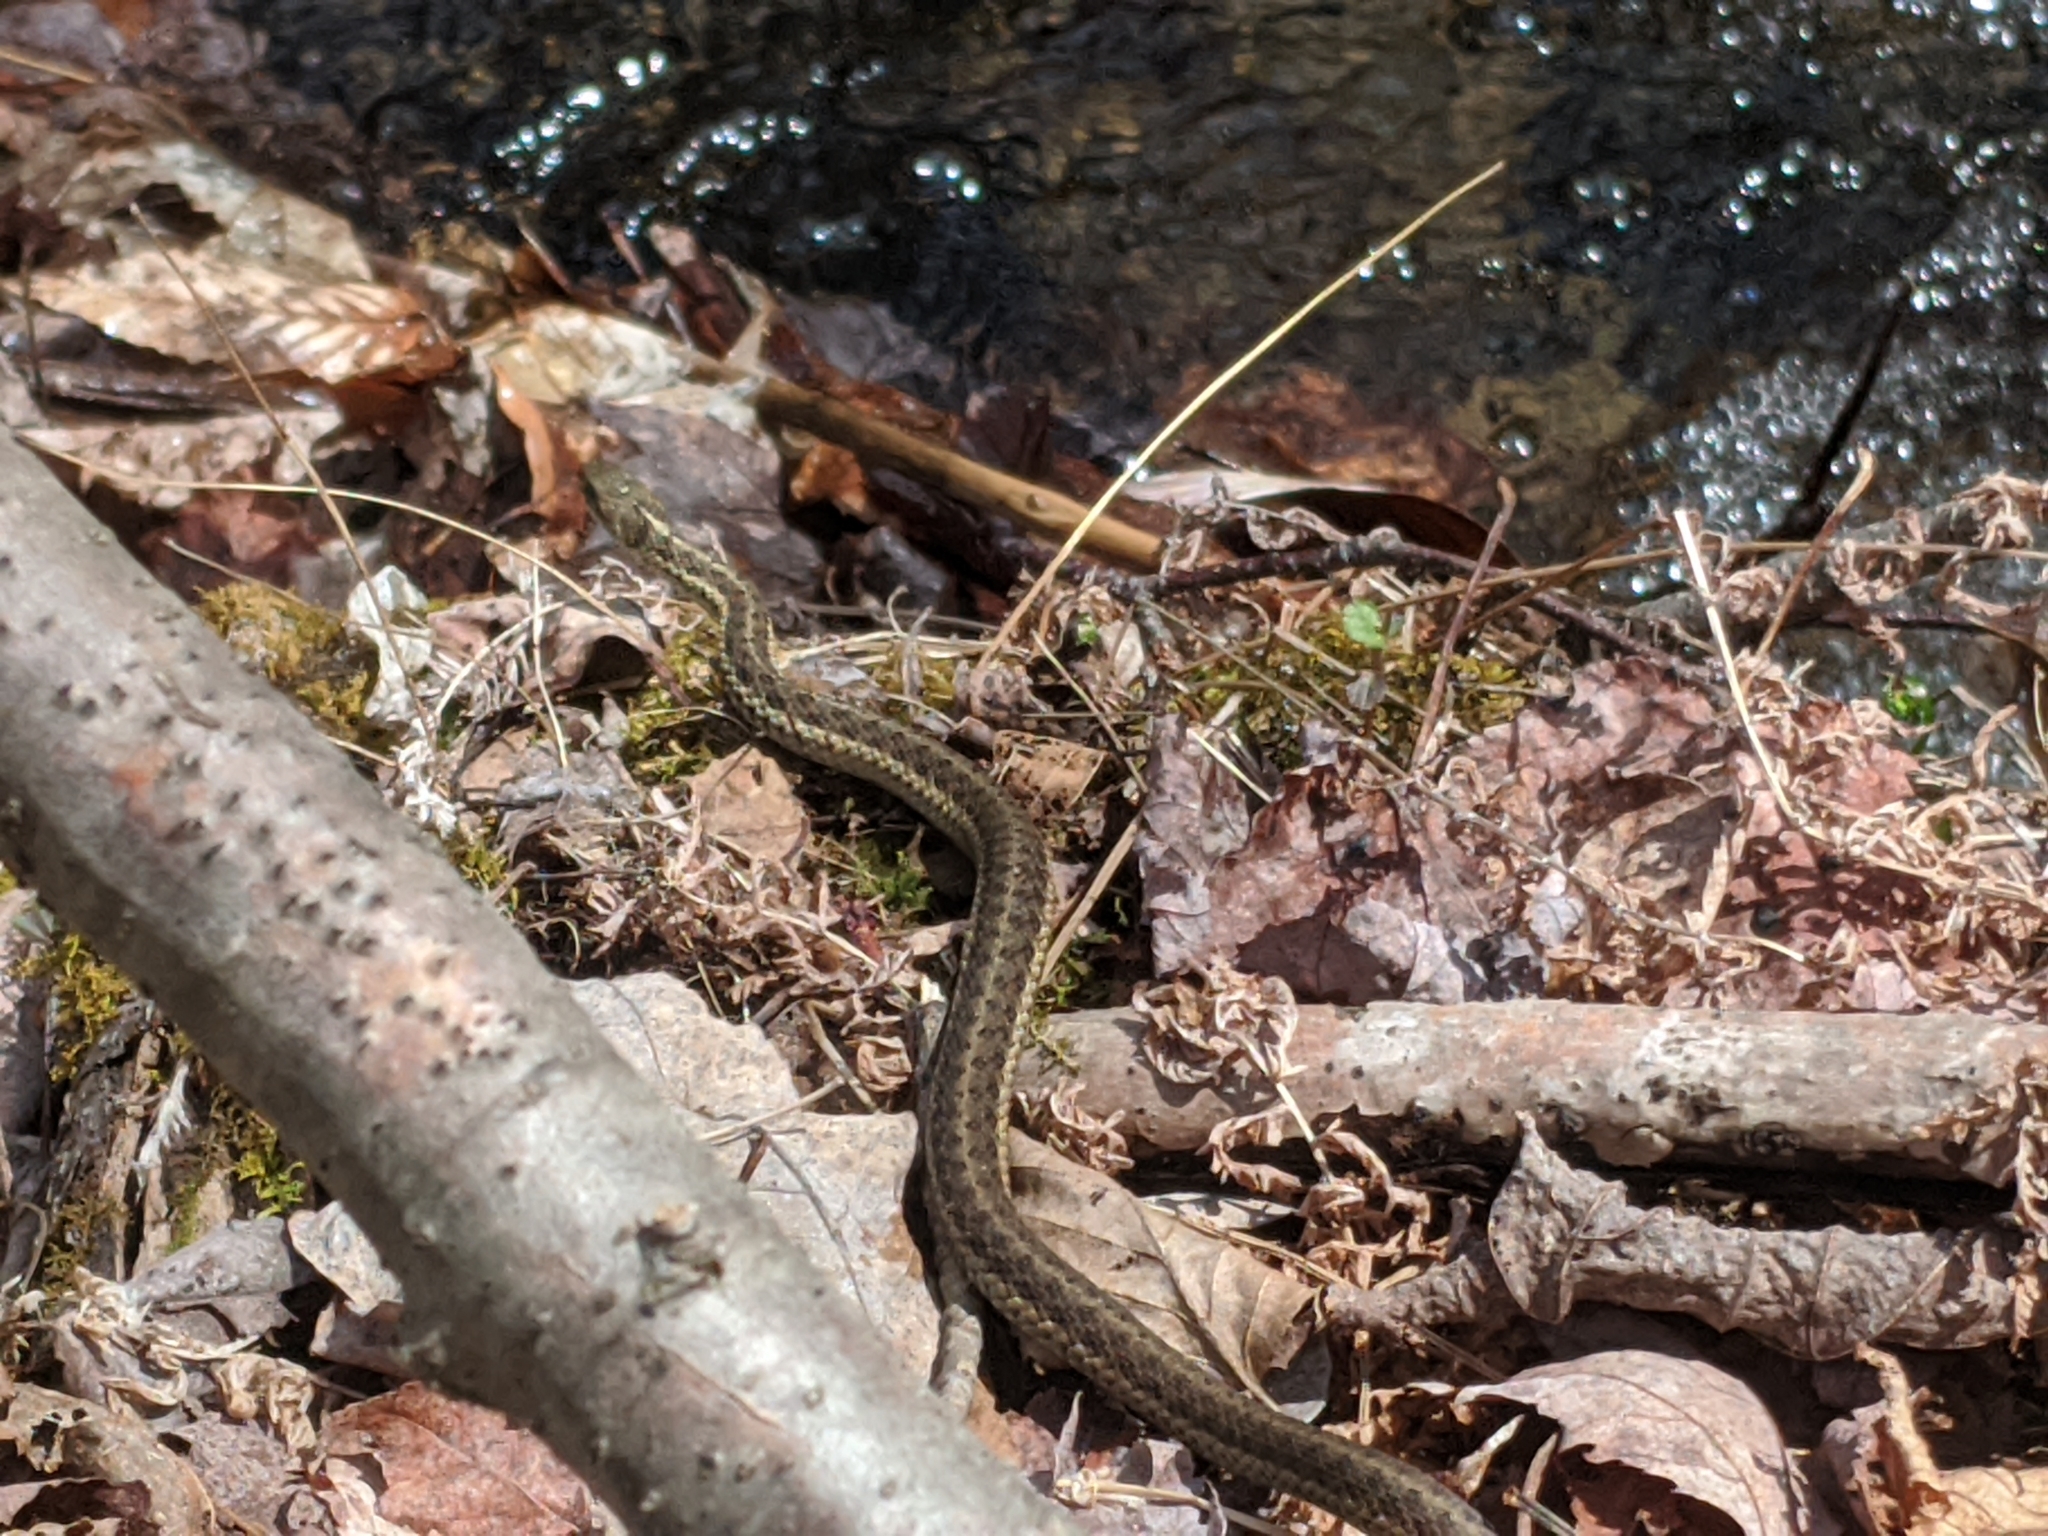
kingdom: Animalia
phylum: Chordata
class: Squamata
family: Colubridae
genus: Thamnophis
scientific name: Thamnophis sirtalis
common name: Common garter snake
